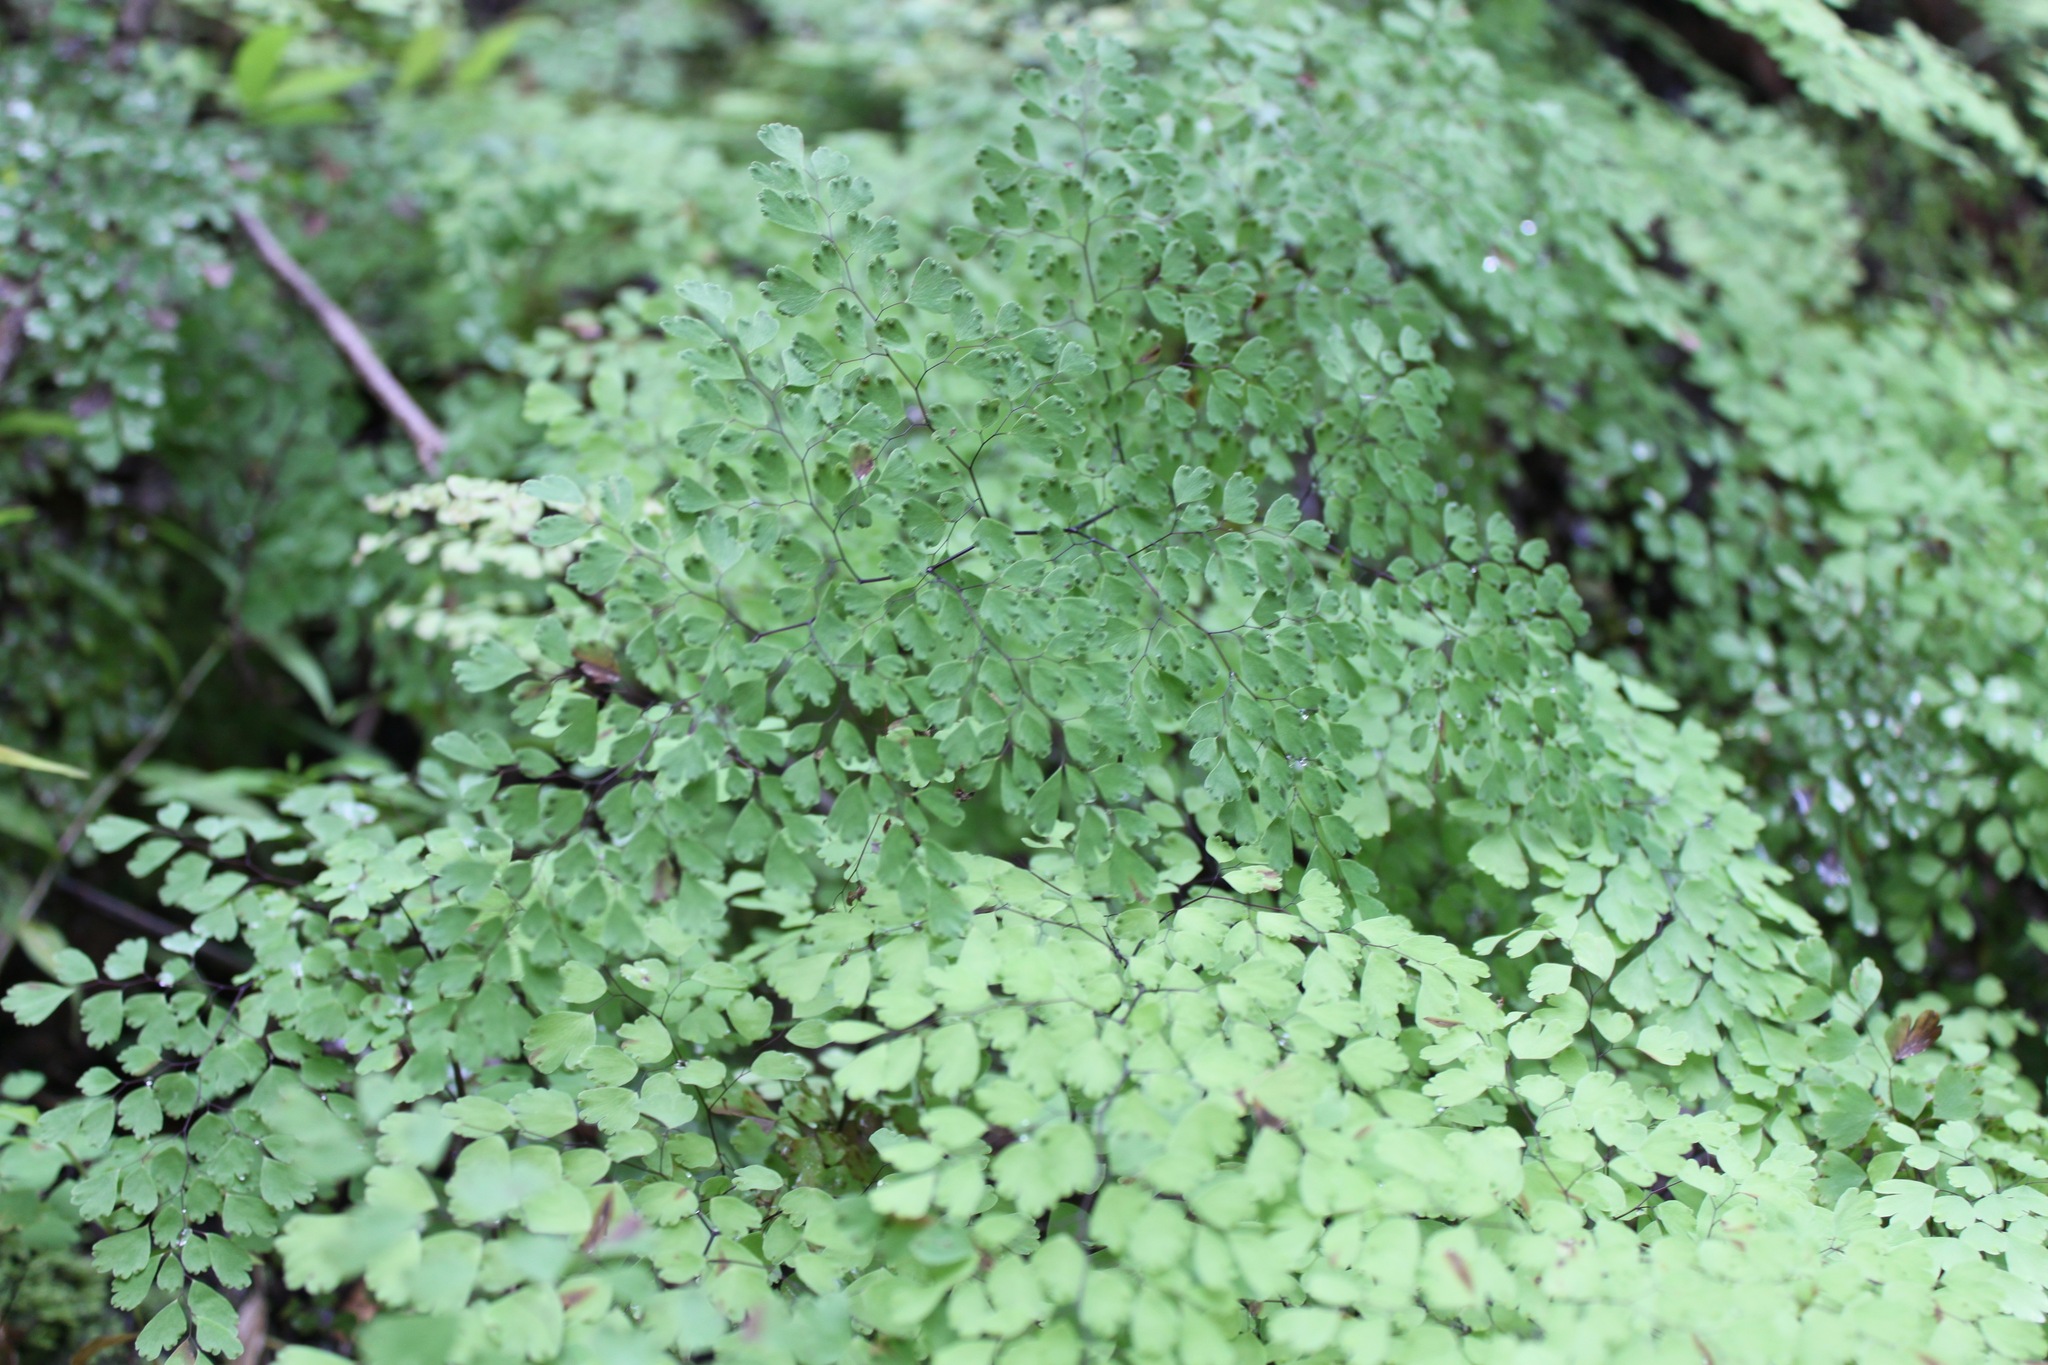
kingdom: Plantae
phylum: Tracheophyta
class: Polypodiopsida
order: Polypodiales
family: Pteridaceae
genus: Adiantum
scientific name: Adiantum raddianum
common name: Delta maidenhair fern
